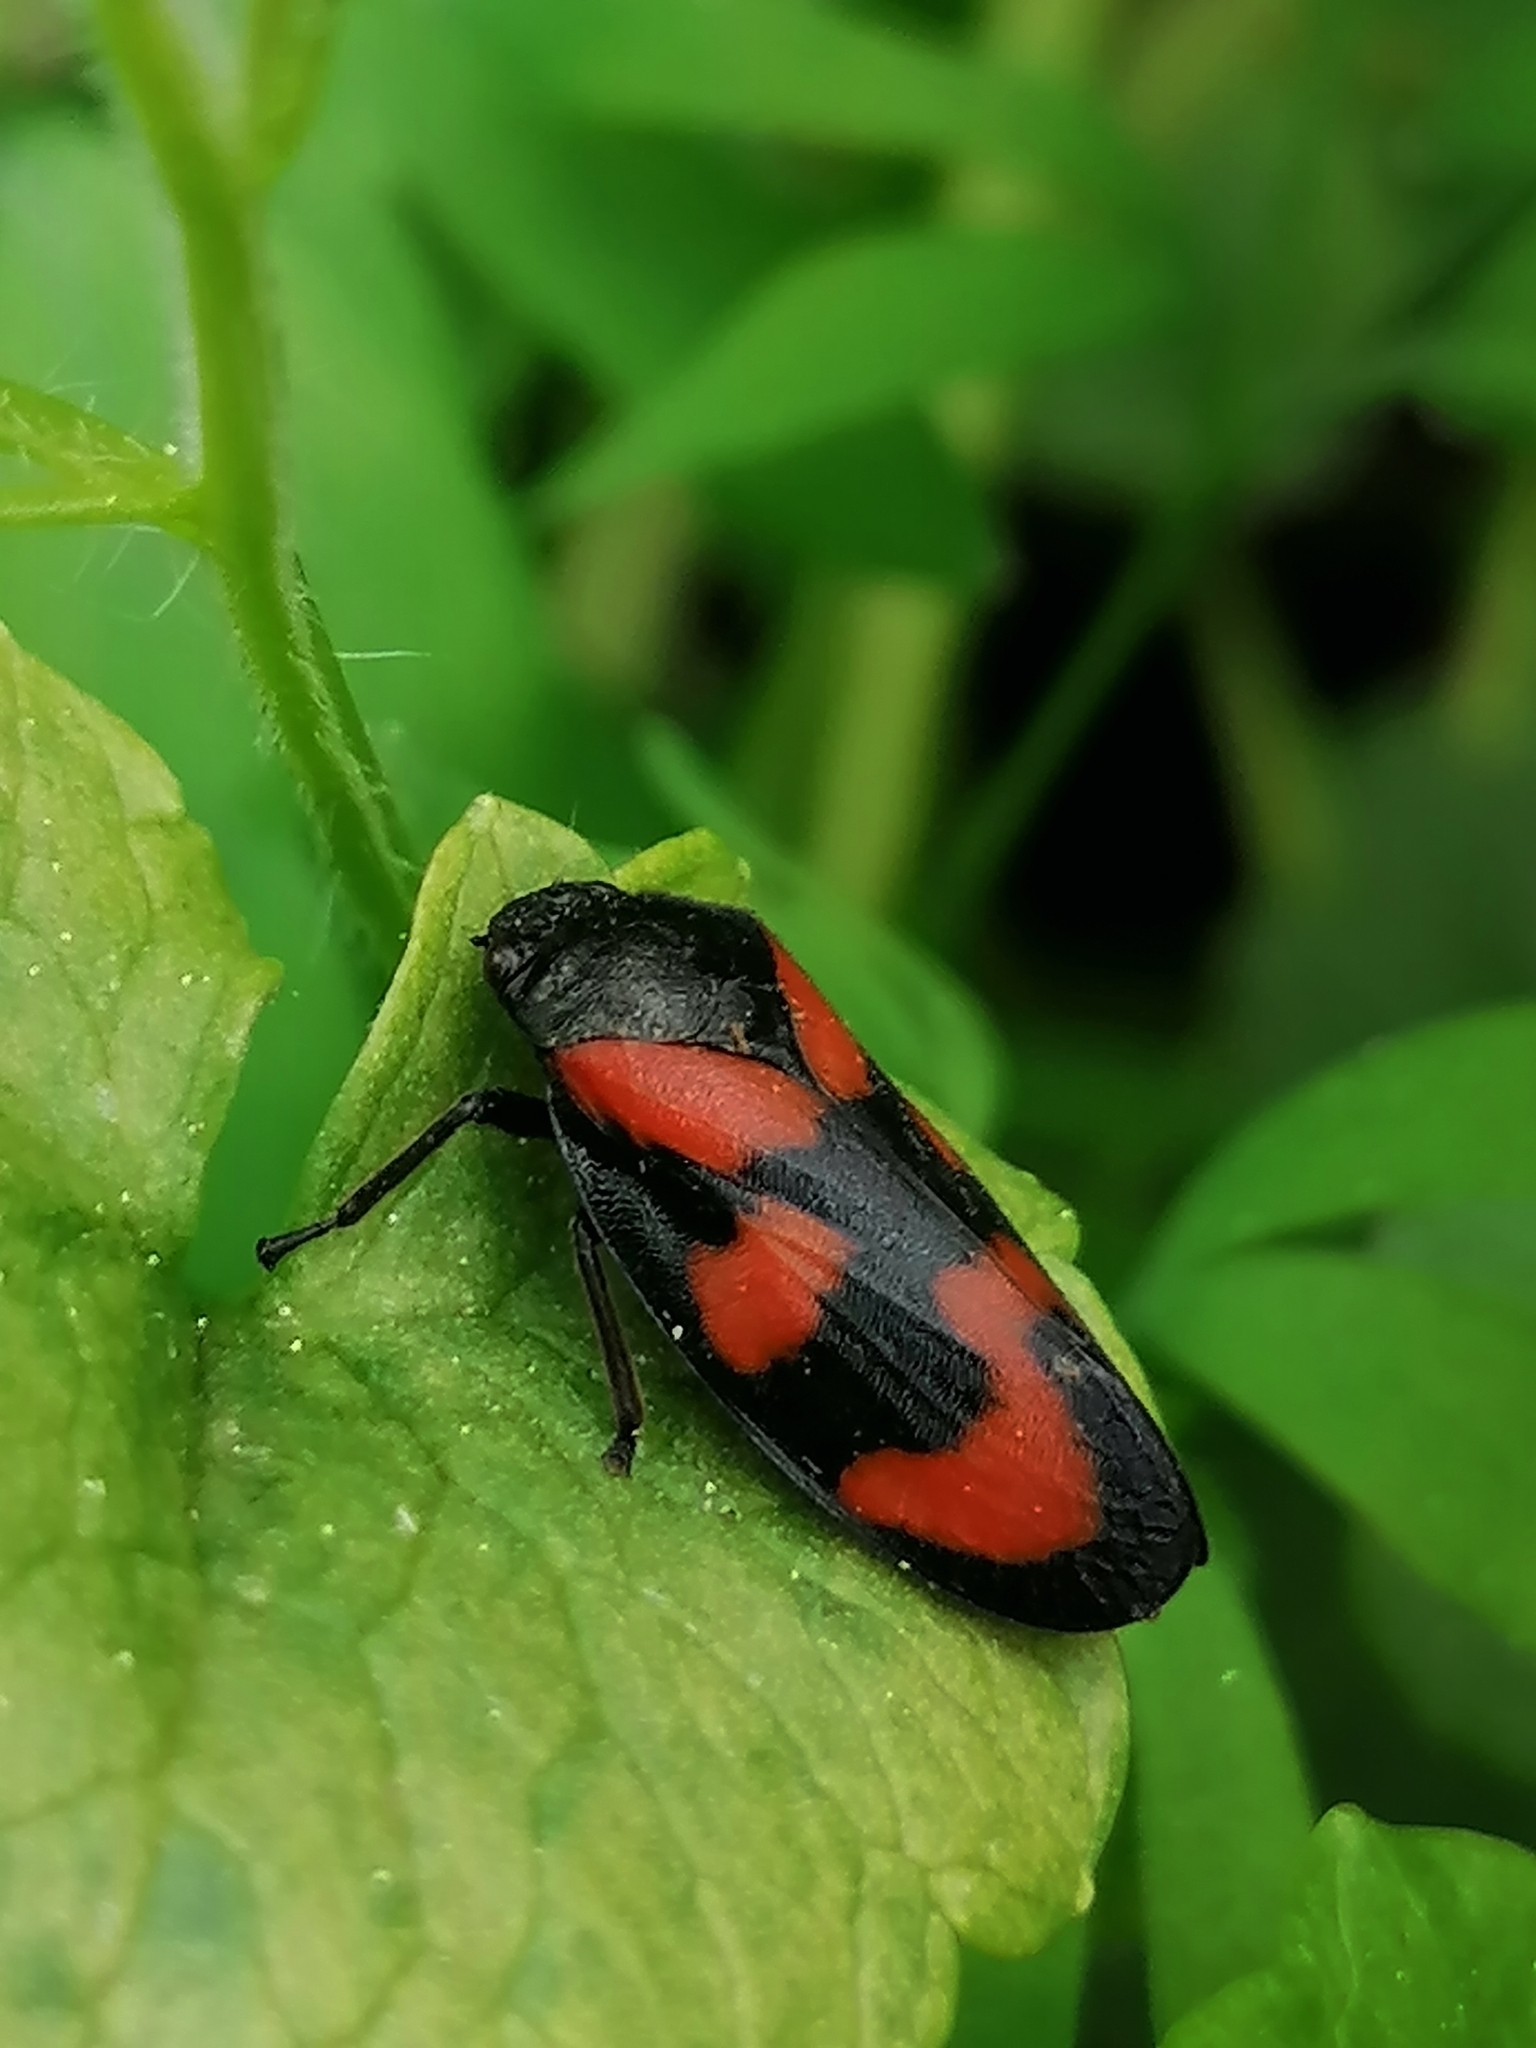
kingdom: Animalia
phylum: Arthropoda
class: Insecta
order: Hemiptera
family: Cercopidae
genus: Cercopis
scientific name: Cercopis vulnerata
